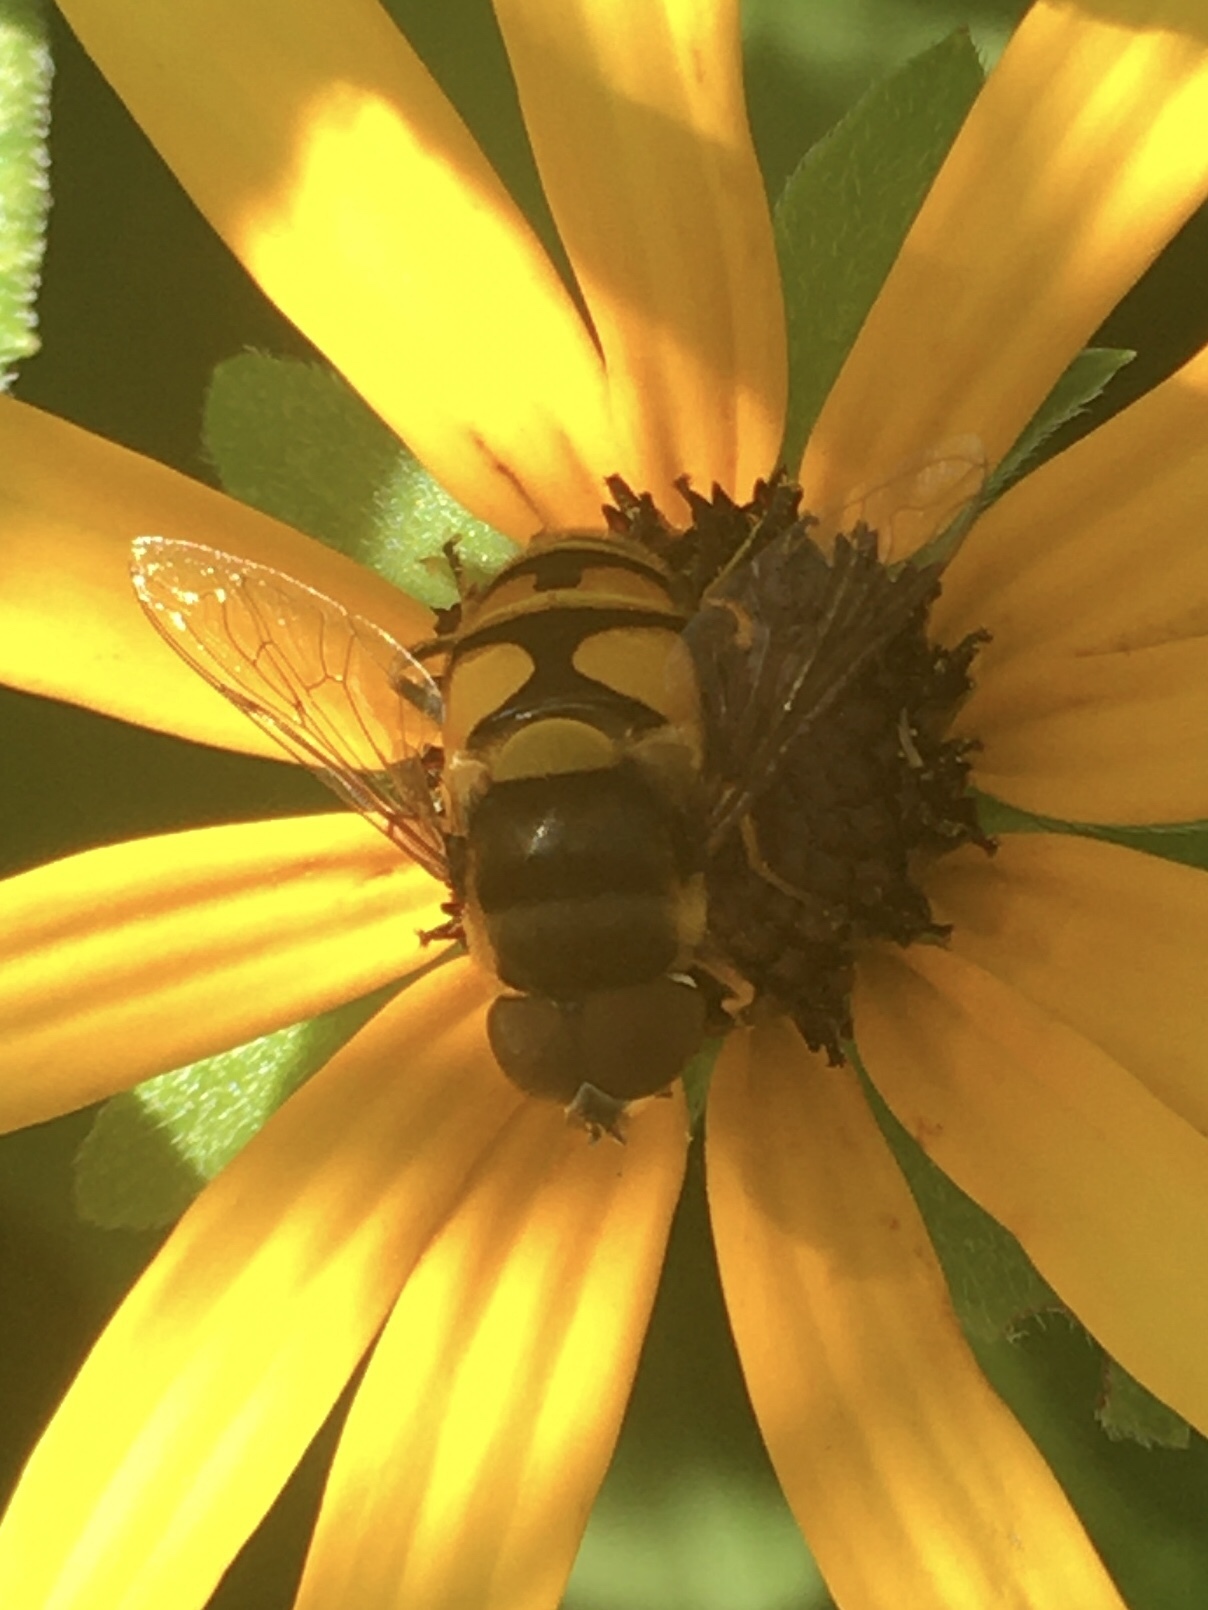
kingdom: Animalia
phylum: Arthropoda
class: Insecta
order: Diptera
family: Syrphidae
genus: Eristalis
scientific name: Eristalis transversa
